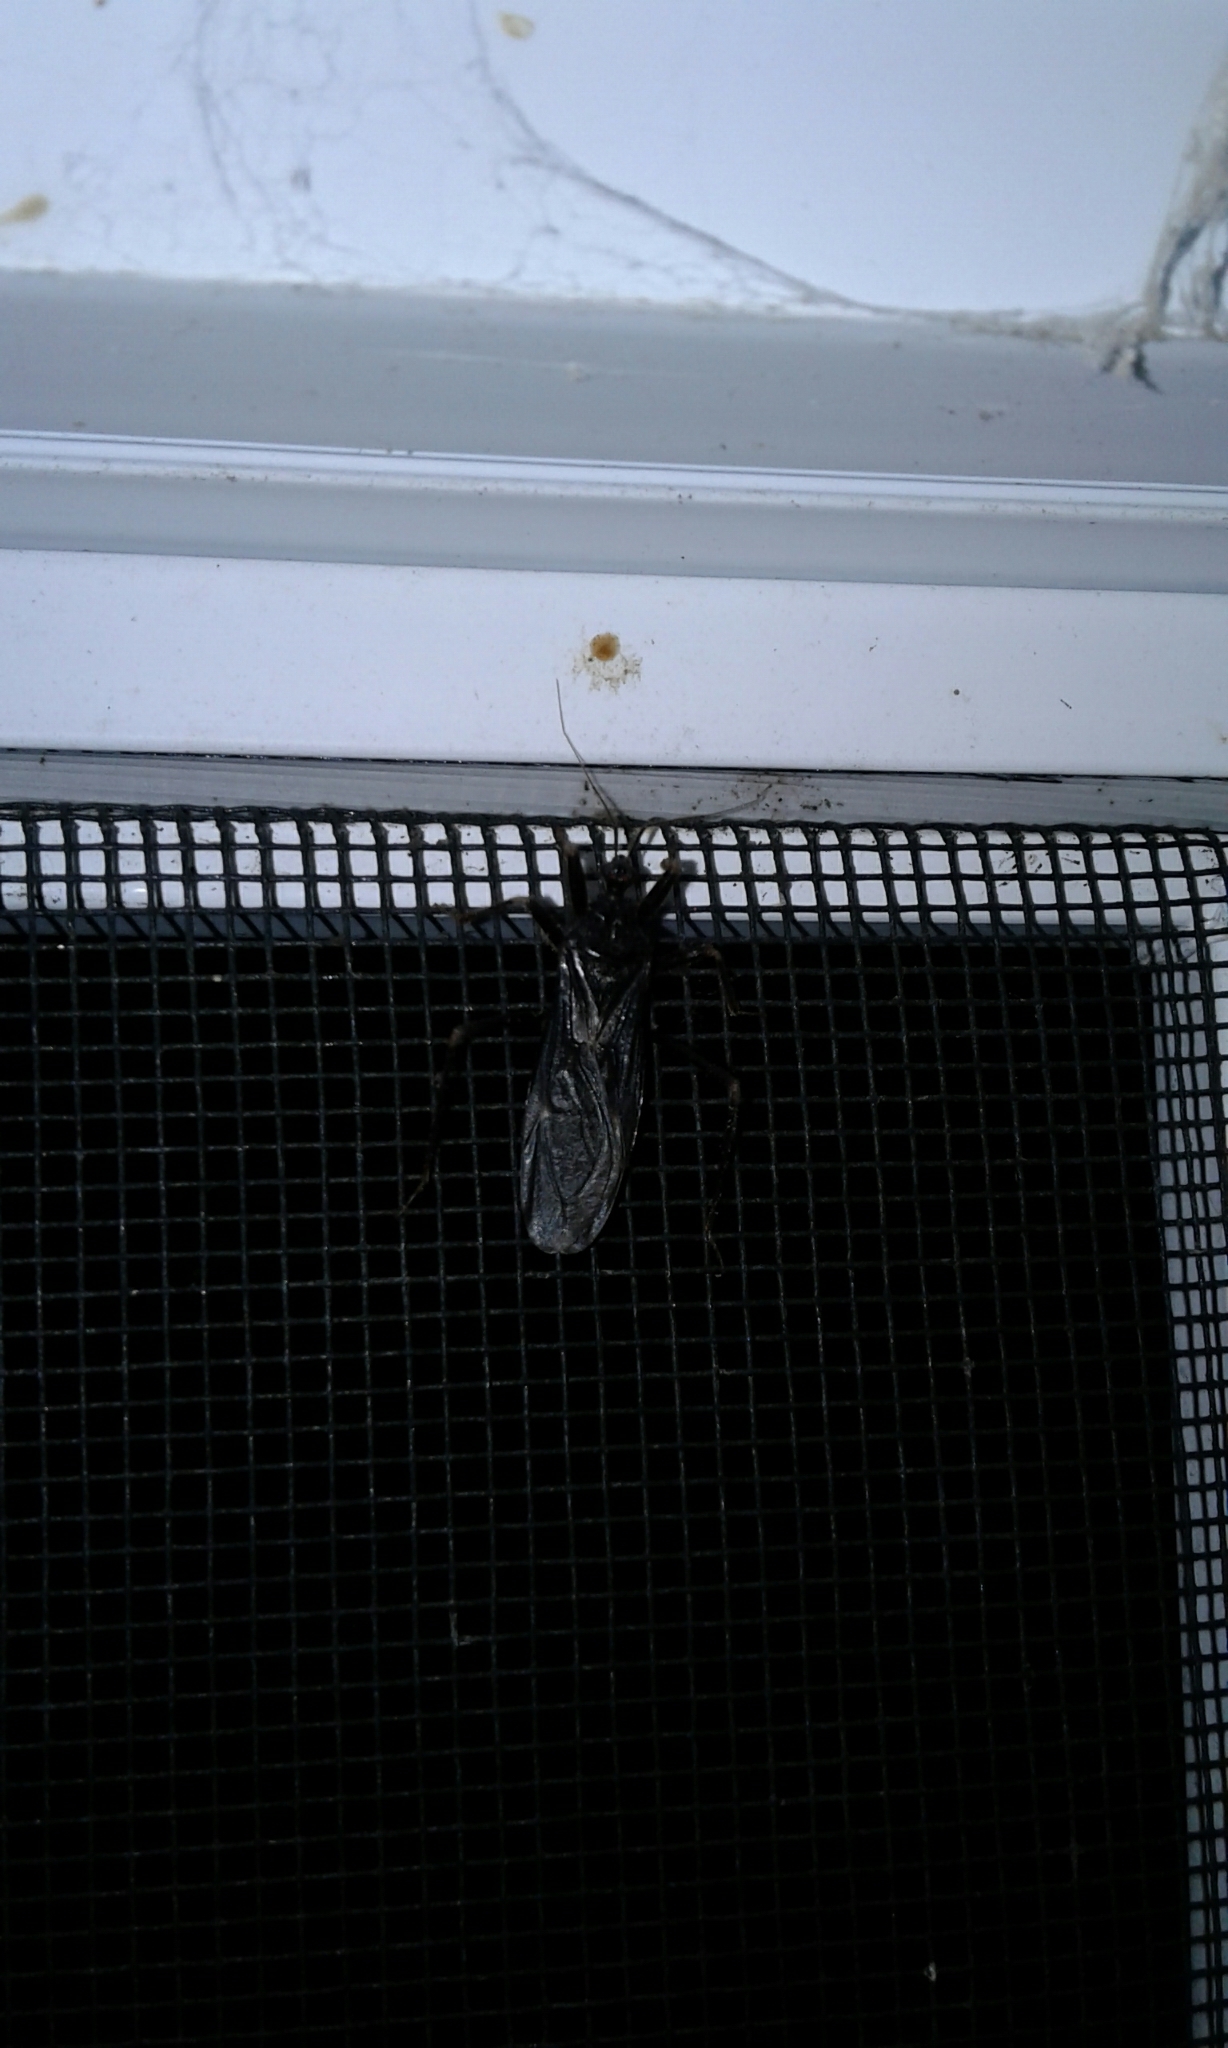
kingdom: Animalia
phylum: Arthropoda
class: Insecta
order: Hemiptera
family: Reduviidae
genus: Reduvius
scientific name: Reduvius personatus
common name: Masked hunter
